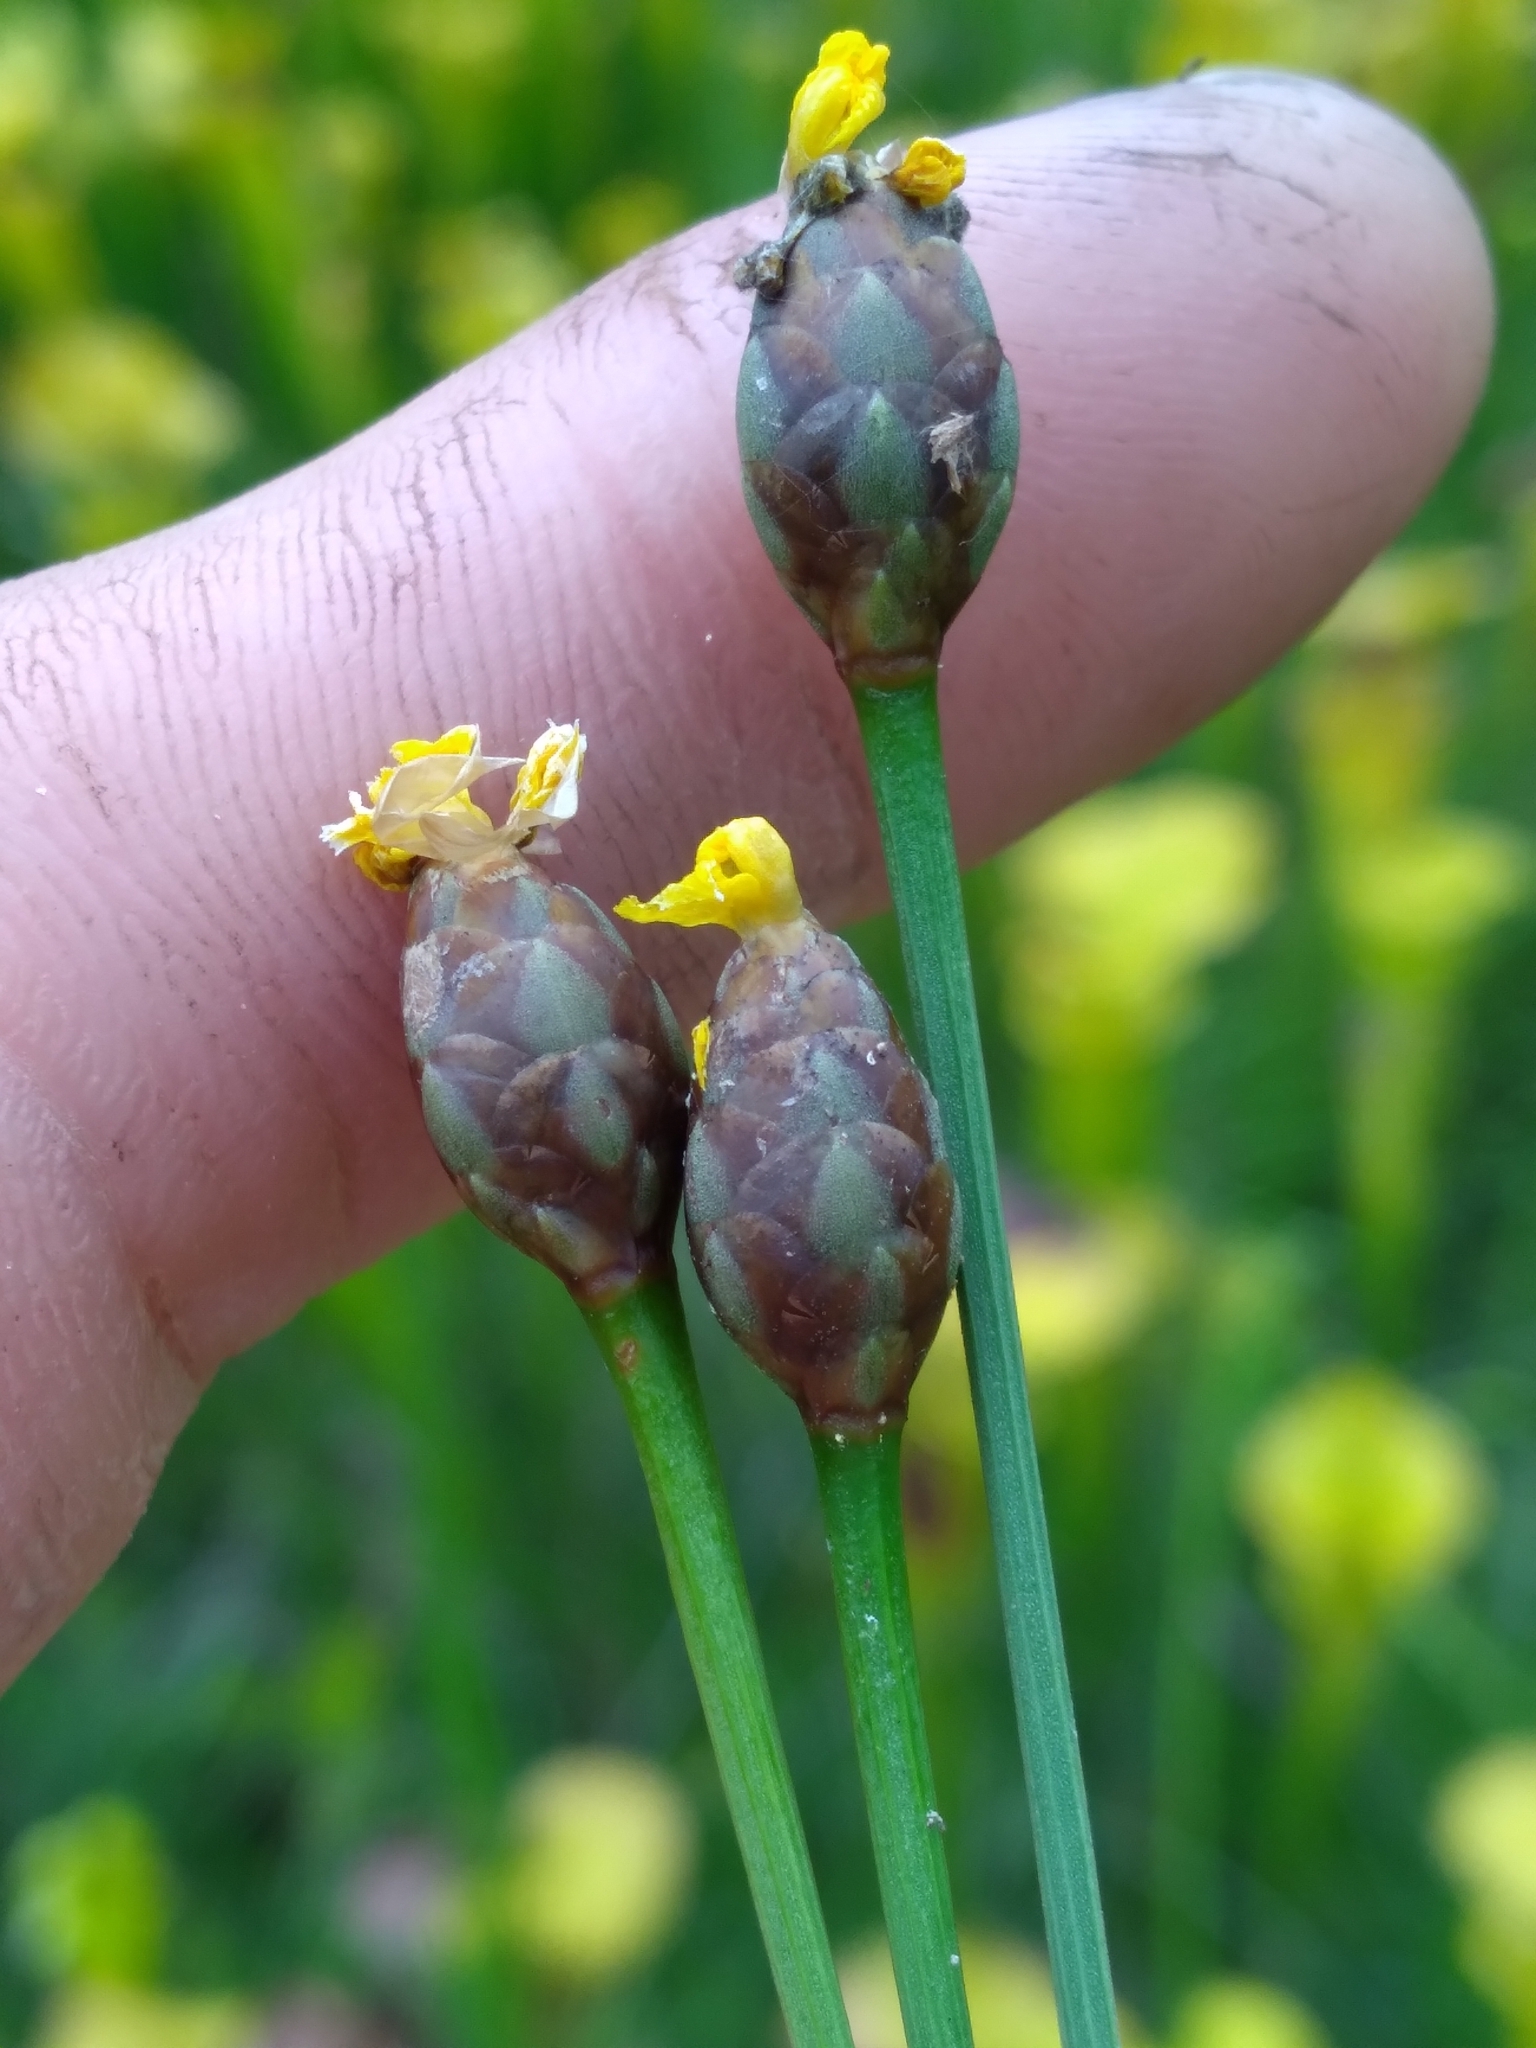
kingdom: Plantae
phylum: Tracheophyta
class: Liliopsida
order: Poales
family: Xyridaceae
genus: Xyris
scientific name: Xyris scabrifolia
